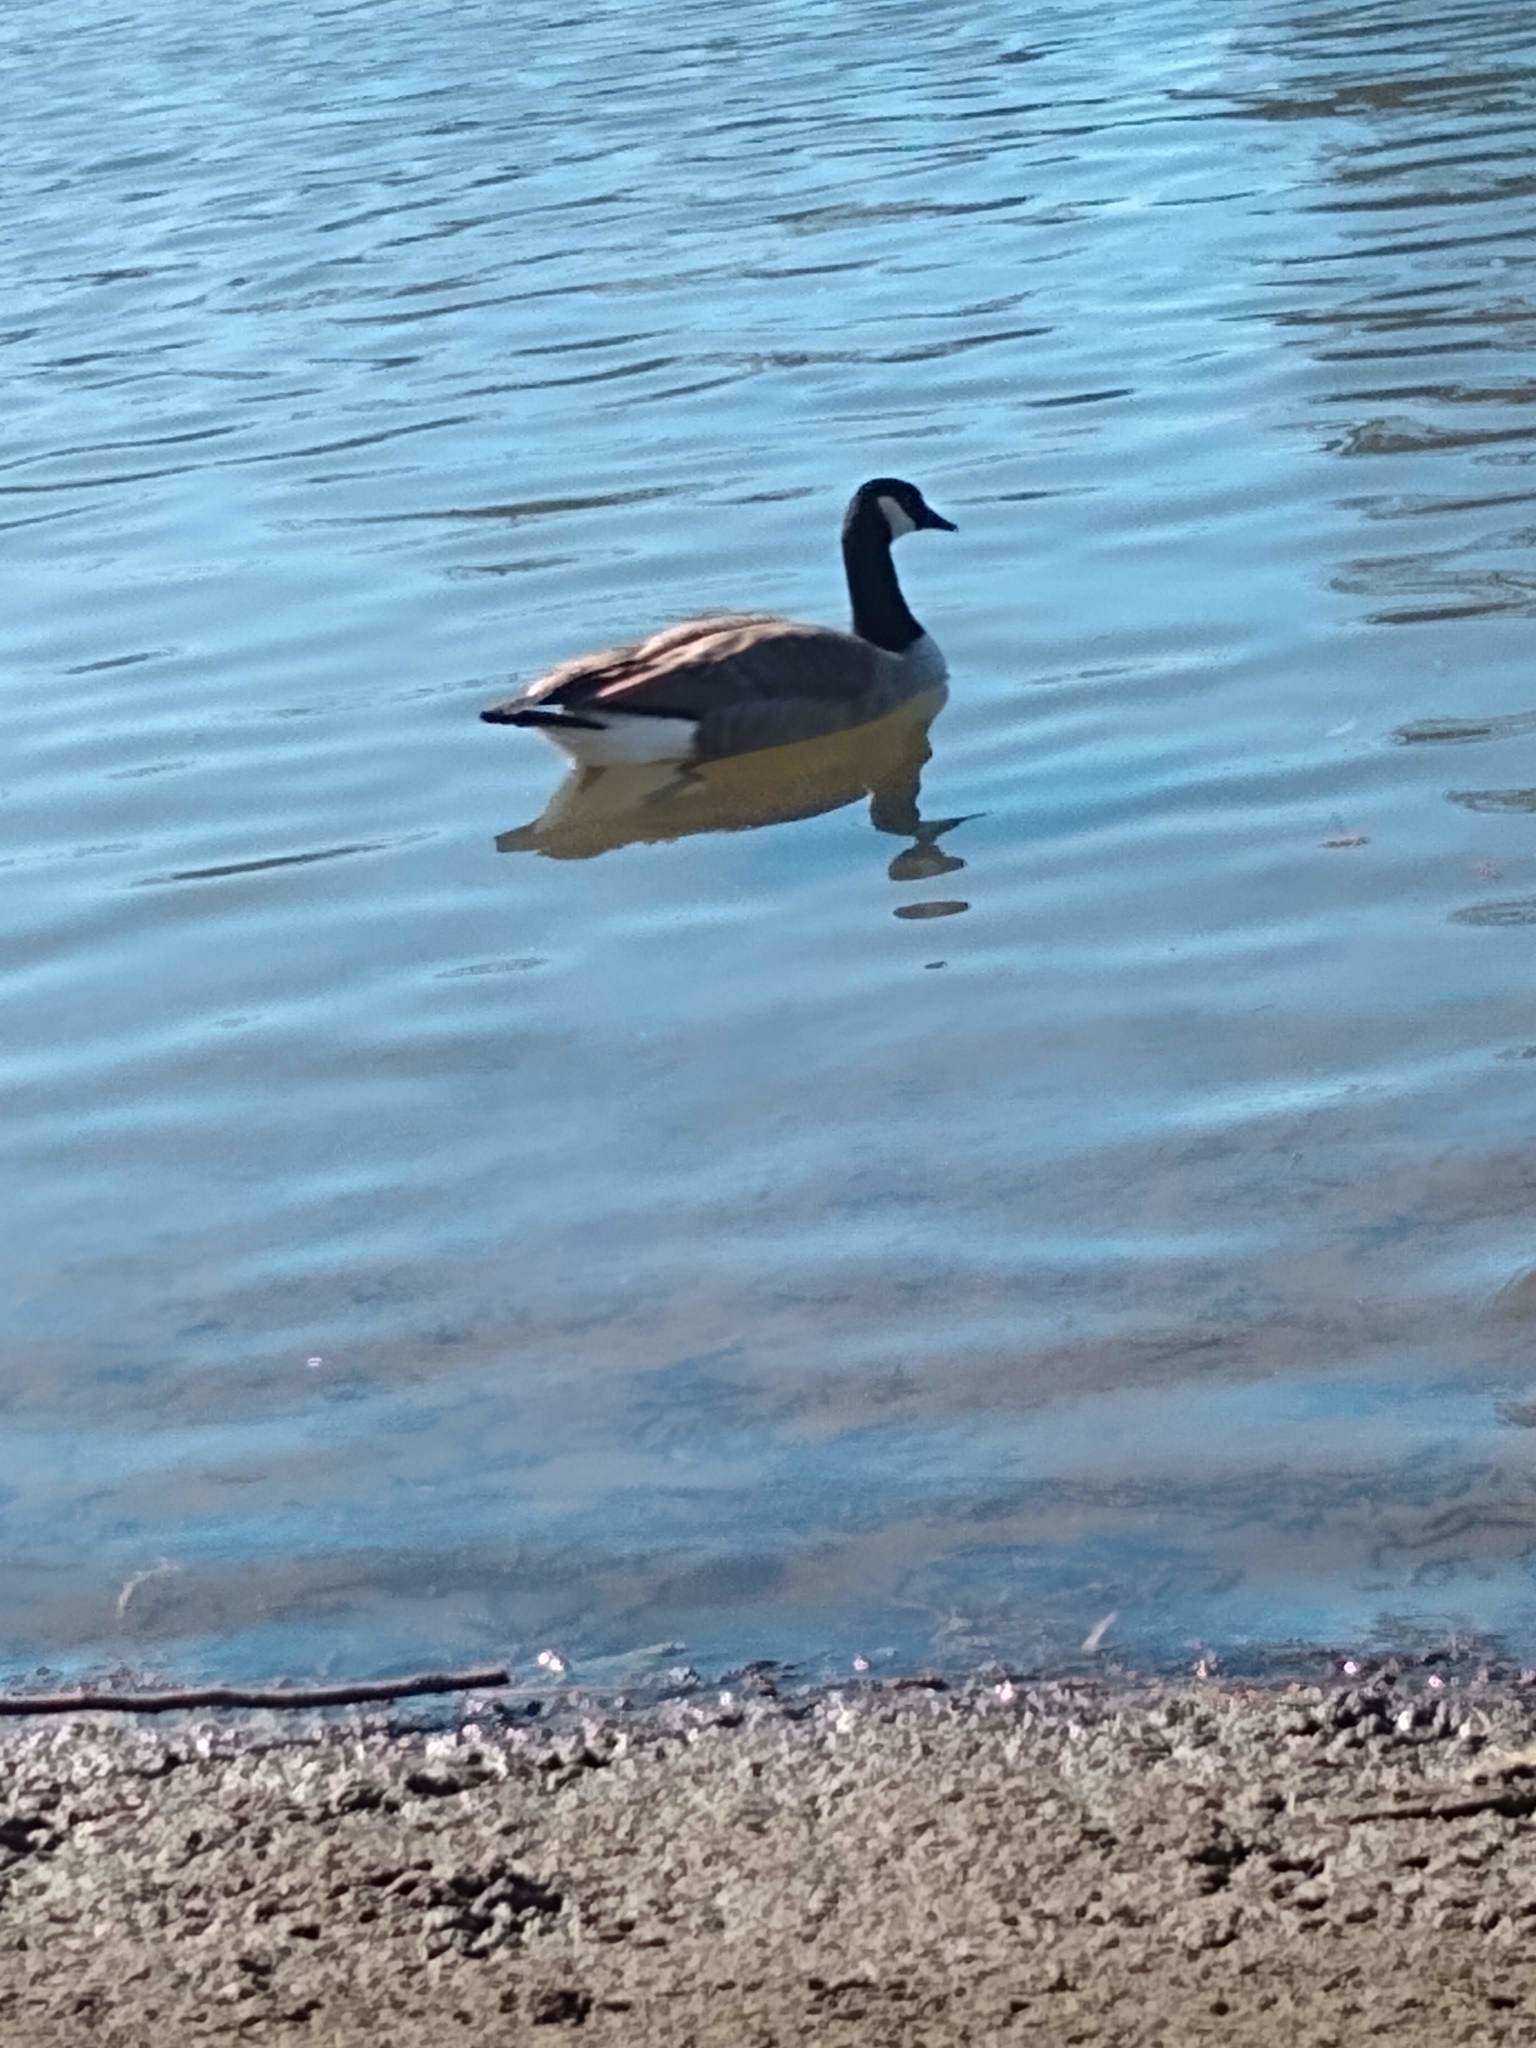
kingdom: Animalia
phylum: Chordata
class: Aves
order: Anseriformes
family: Anatidae
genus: Branta
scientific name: Branta canadensis
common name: Canada goose
